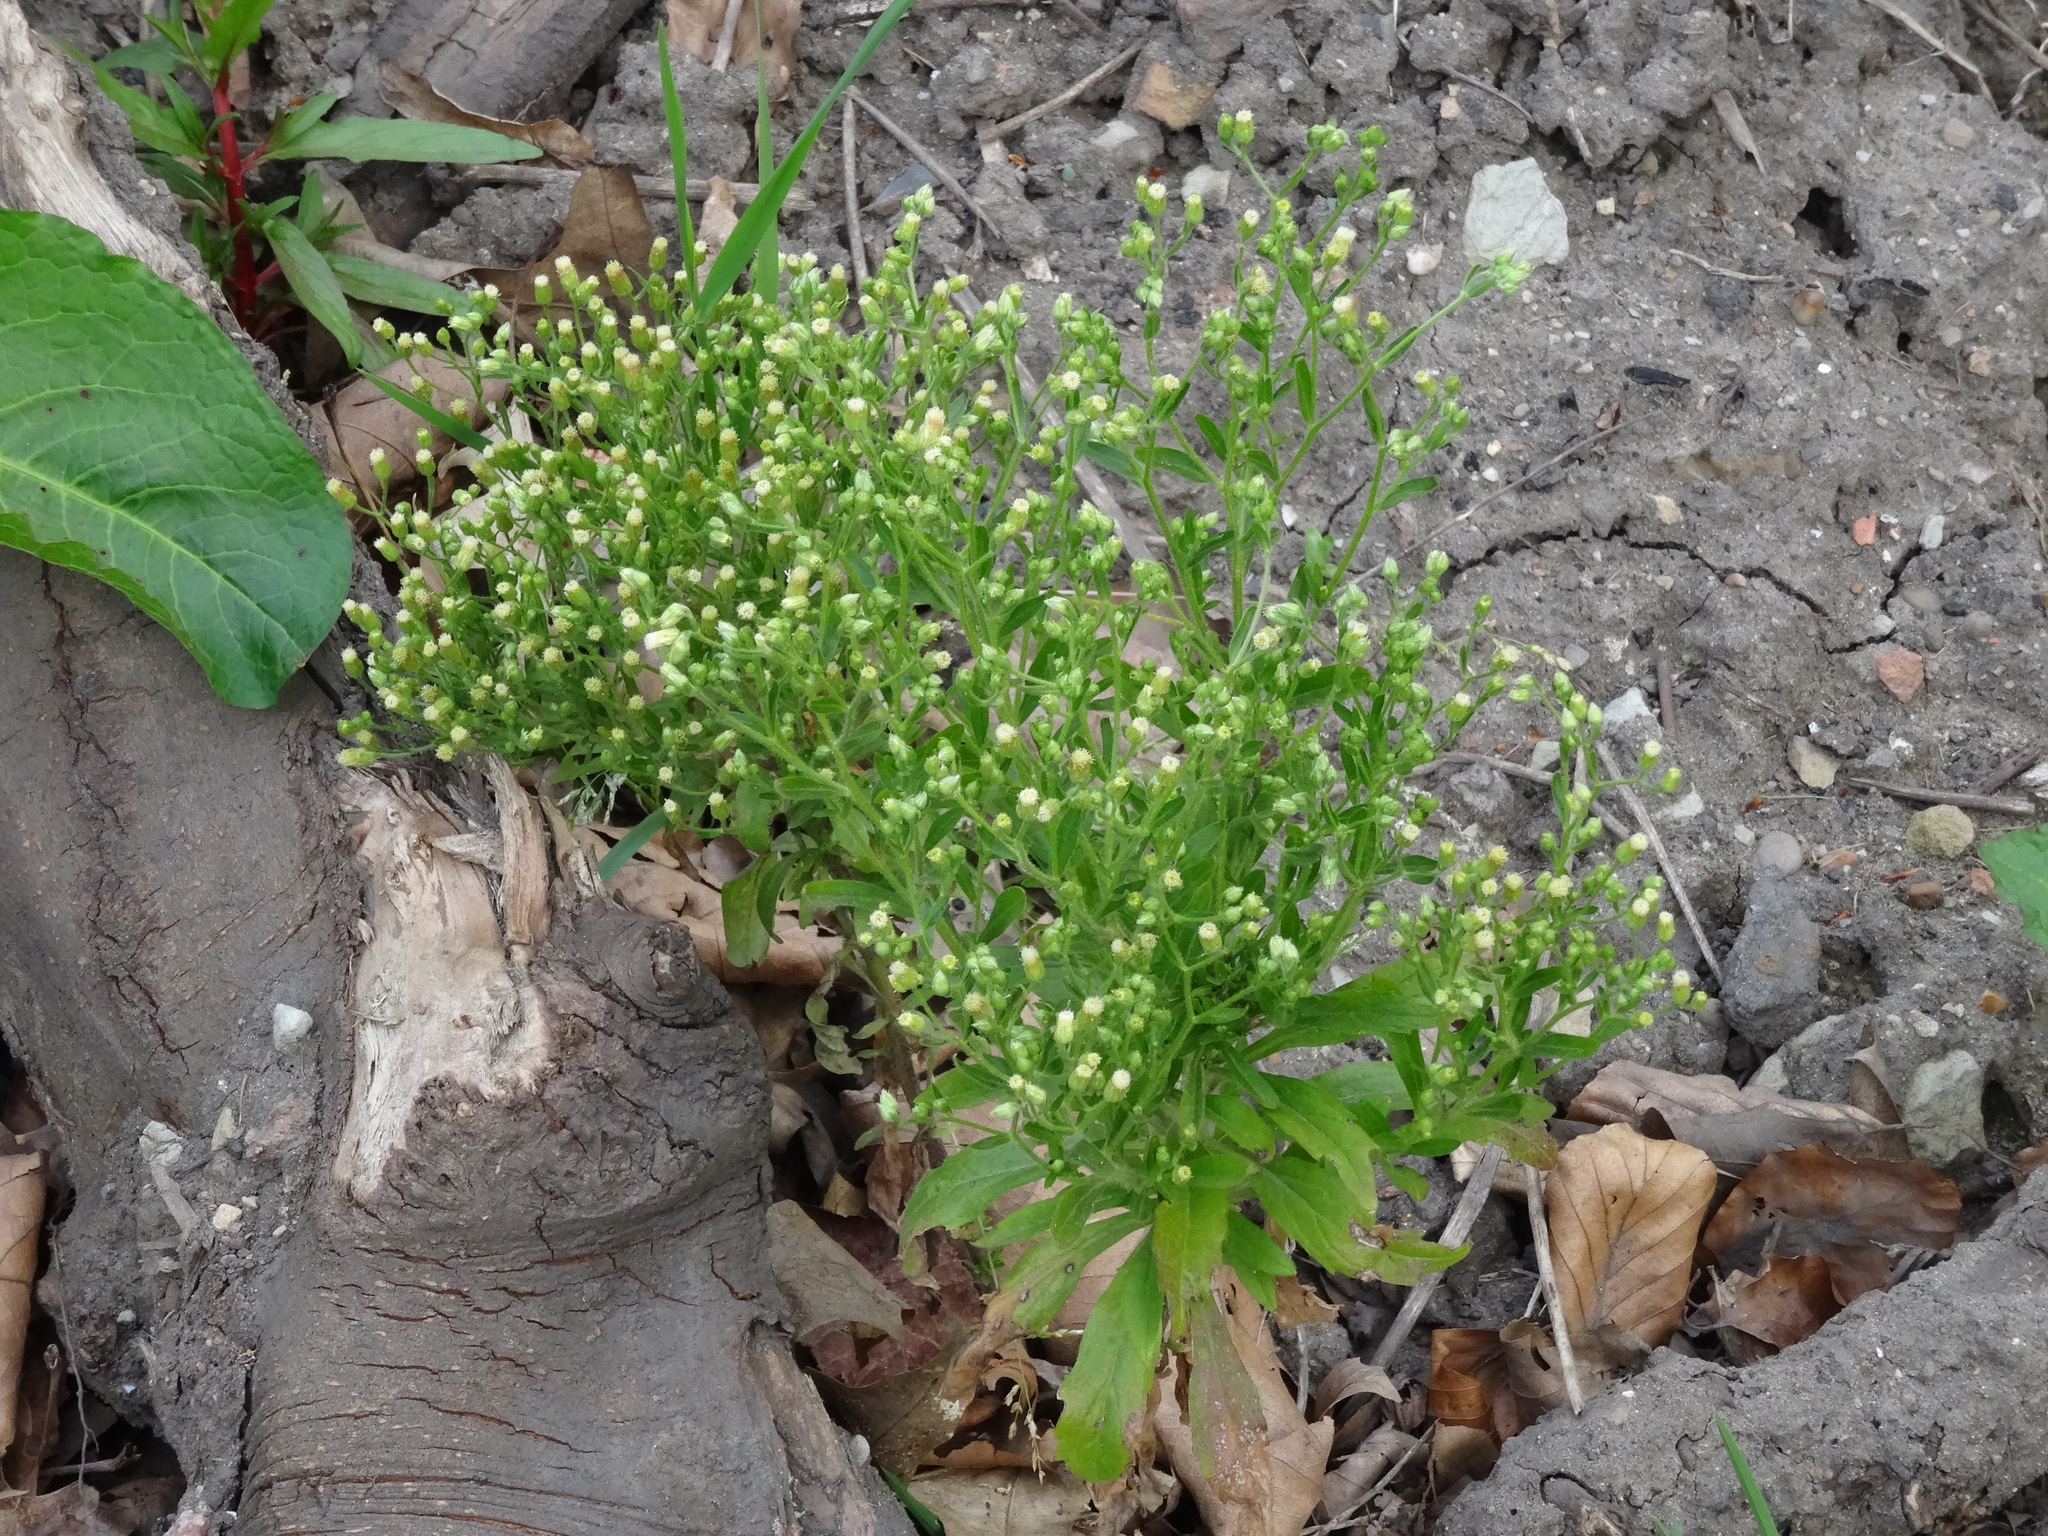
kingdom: Plantae
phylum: Tracheophyta
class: Magnoliopsida
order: Asterales
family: Asteraceae
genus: Erigeron
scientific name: Erigeron canadensis
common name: Canadian fleabane
